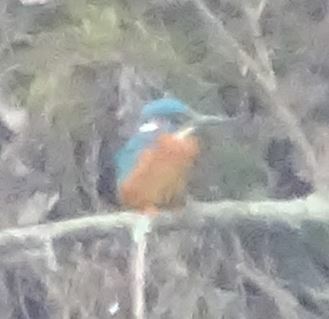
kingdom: Animalia
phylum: Chordata
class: Aves
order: Coraciiformes
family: Alcedinidae
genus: Alcedo
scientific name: Alcedo atthis
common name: Common kingfisher
